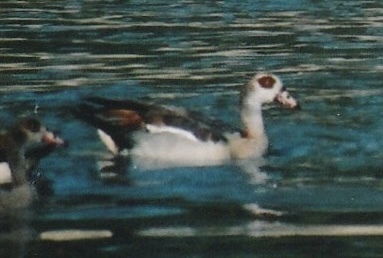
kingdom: Animalia
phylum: Chordata
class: Aves
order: Anseriformes
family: Anatidae
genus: Alopochen
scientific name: Alopochen aegyptiaca
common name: Egyptian goose
